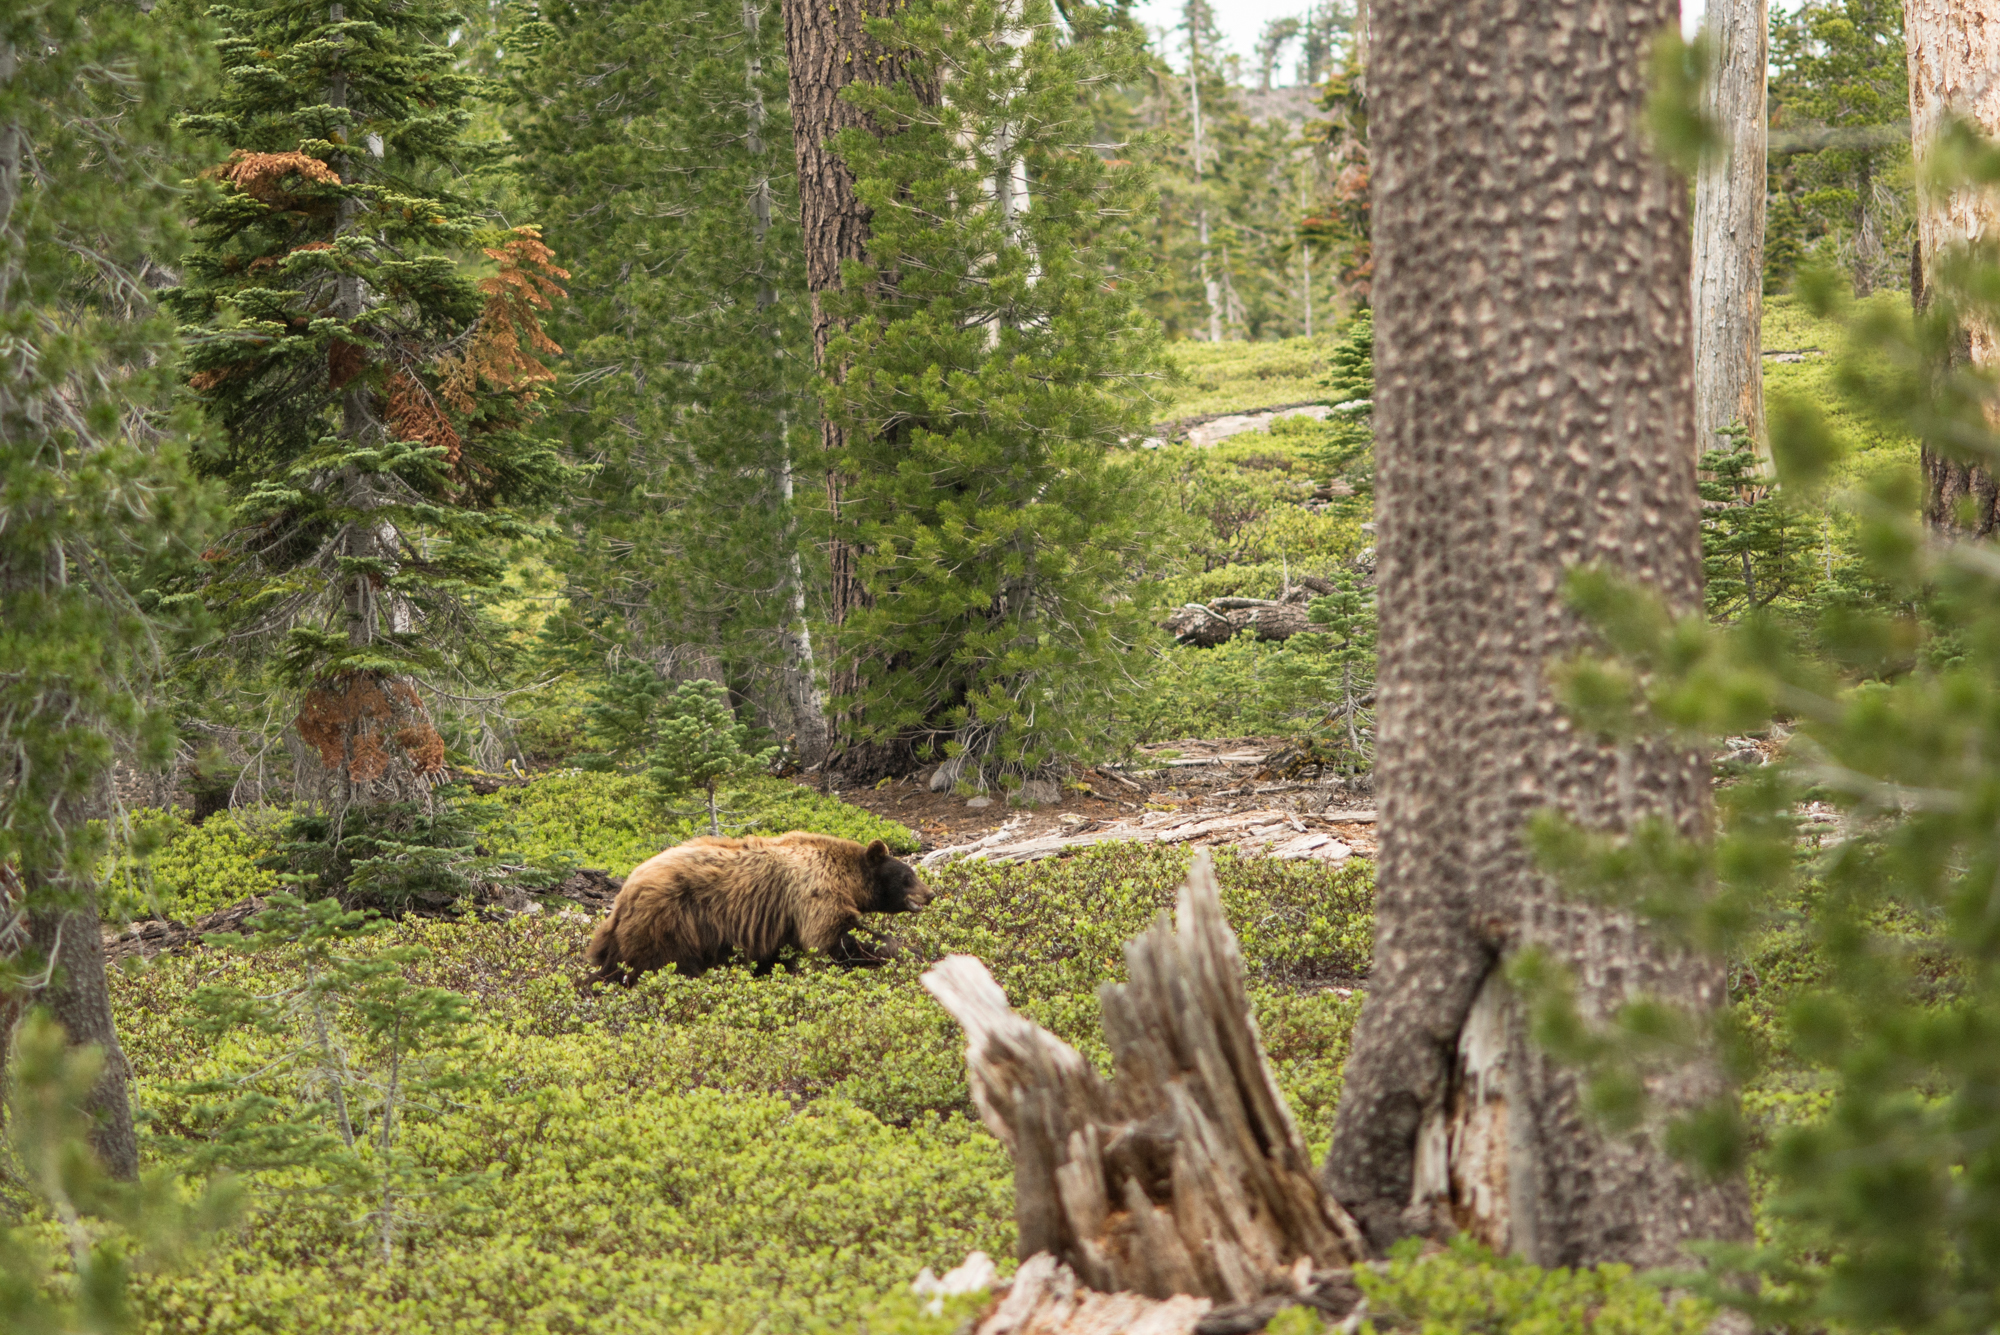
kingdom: Animalia
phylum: Chordata
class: Mammalia
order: Carnivora
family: Ursidae
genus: Ursus
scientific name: Ursus americanus
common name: American black bear
